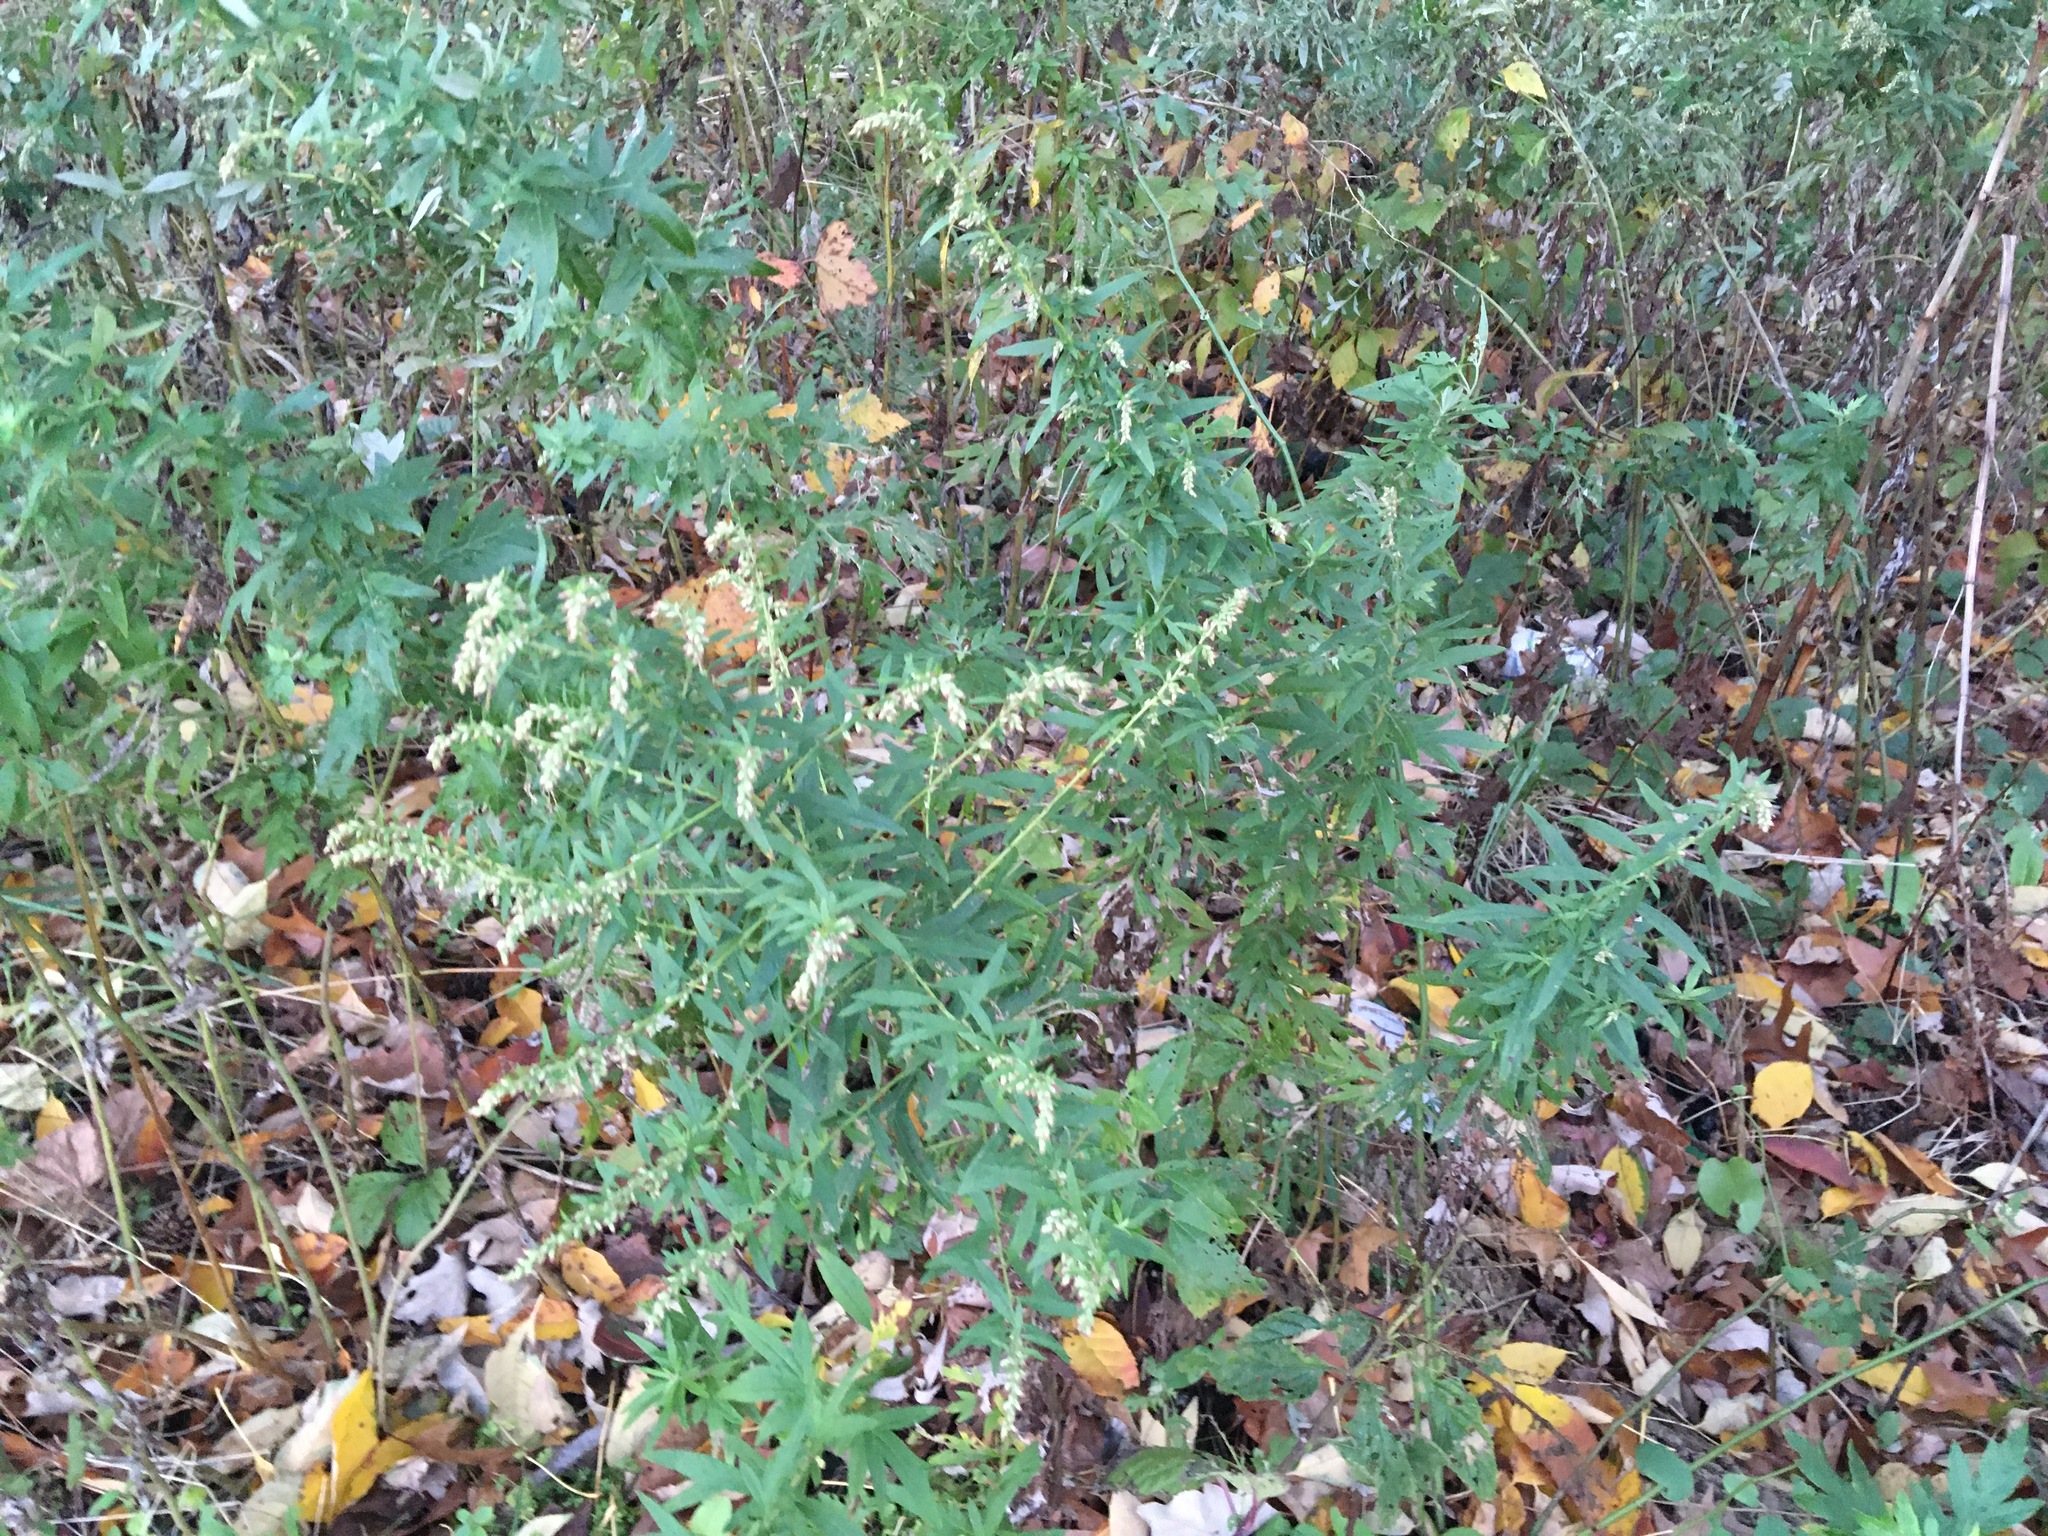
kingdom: Plantae
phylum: Tracheophyta
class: Magnoliopsida
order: Asterales
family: Asteraceae
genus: Artemisia
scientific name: Artemisia vulgaris
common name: Mugwort
